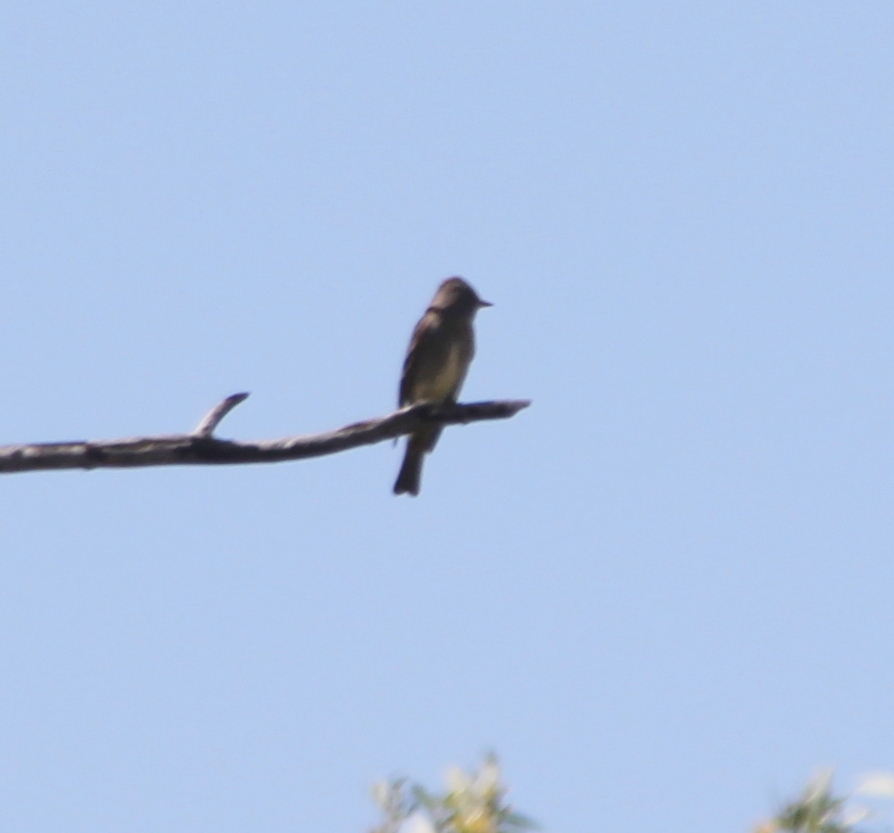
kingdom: Animalia
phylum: Chordata
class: Aves
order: Passeriformes
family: Tyrannidae
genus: Contopus
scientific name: Contopus sordidulus
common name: Western wood-pewee
